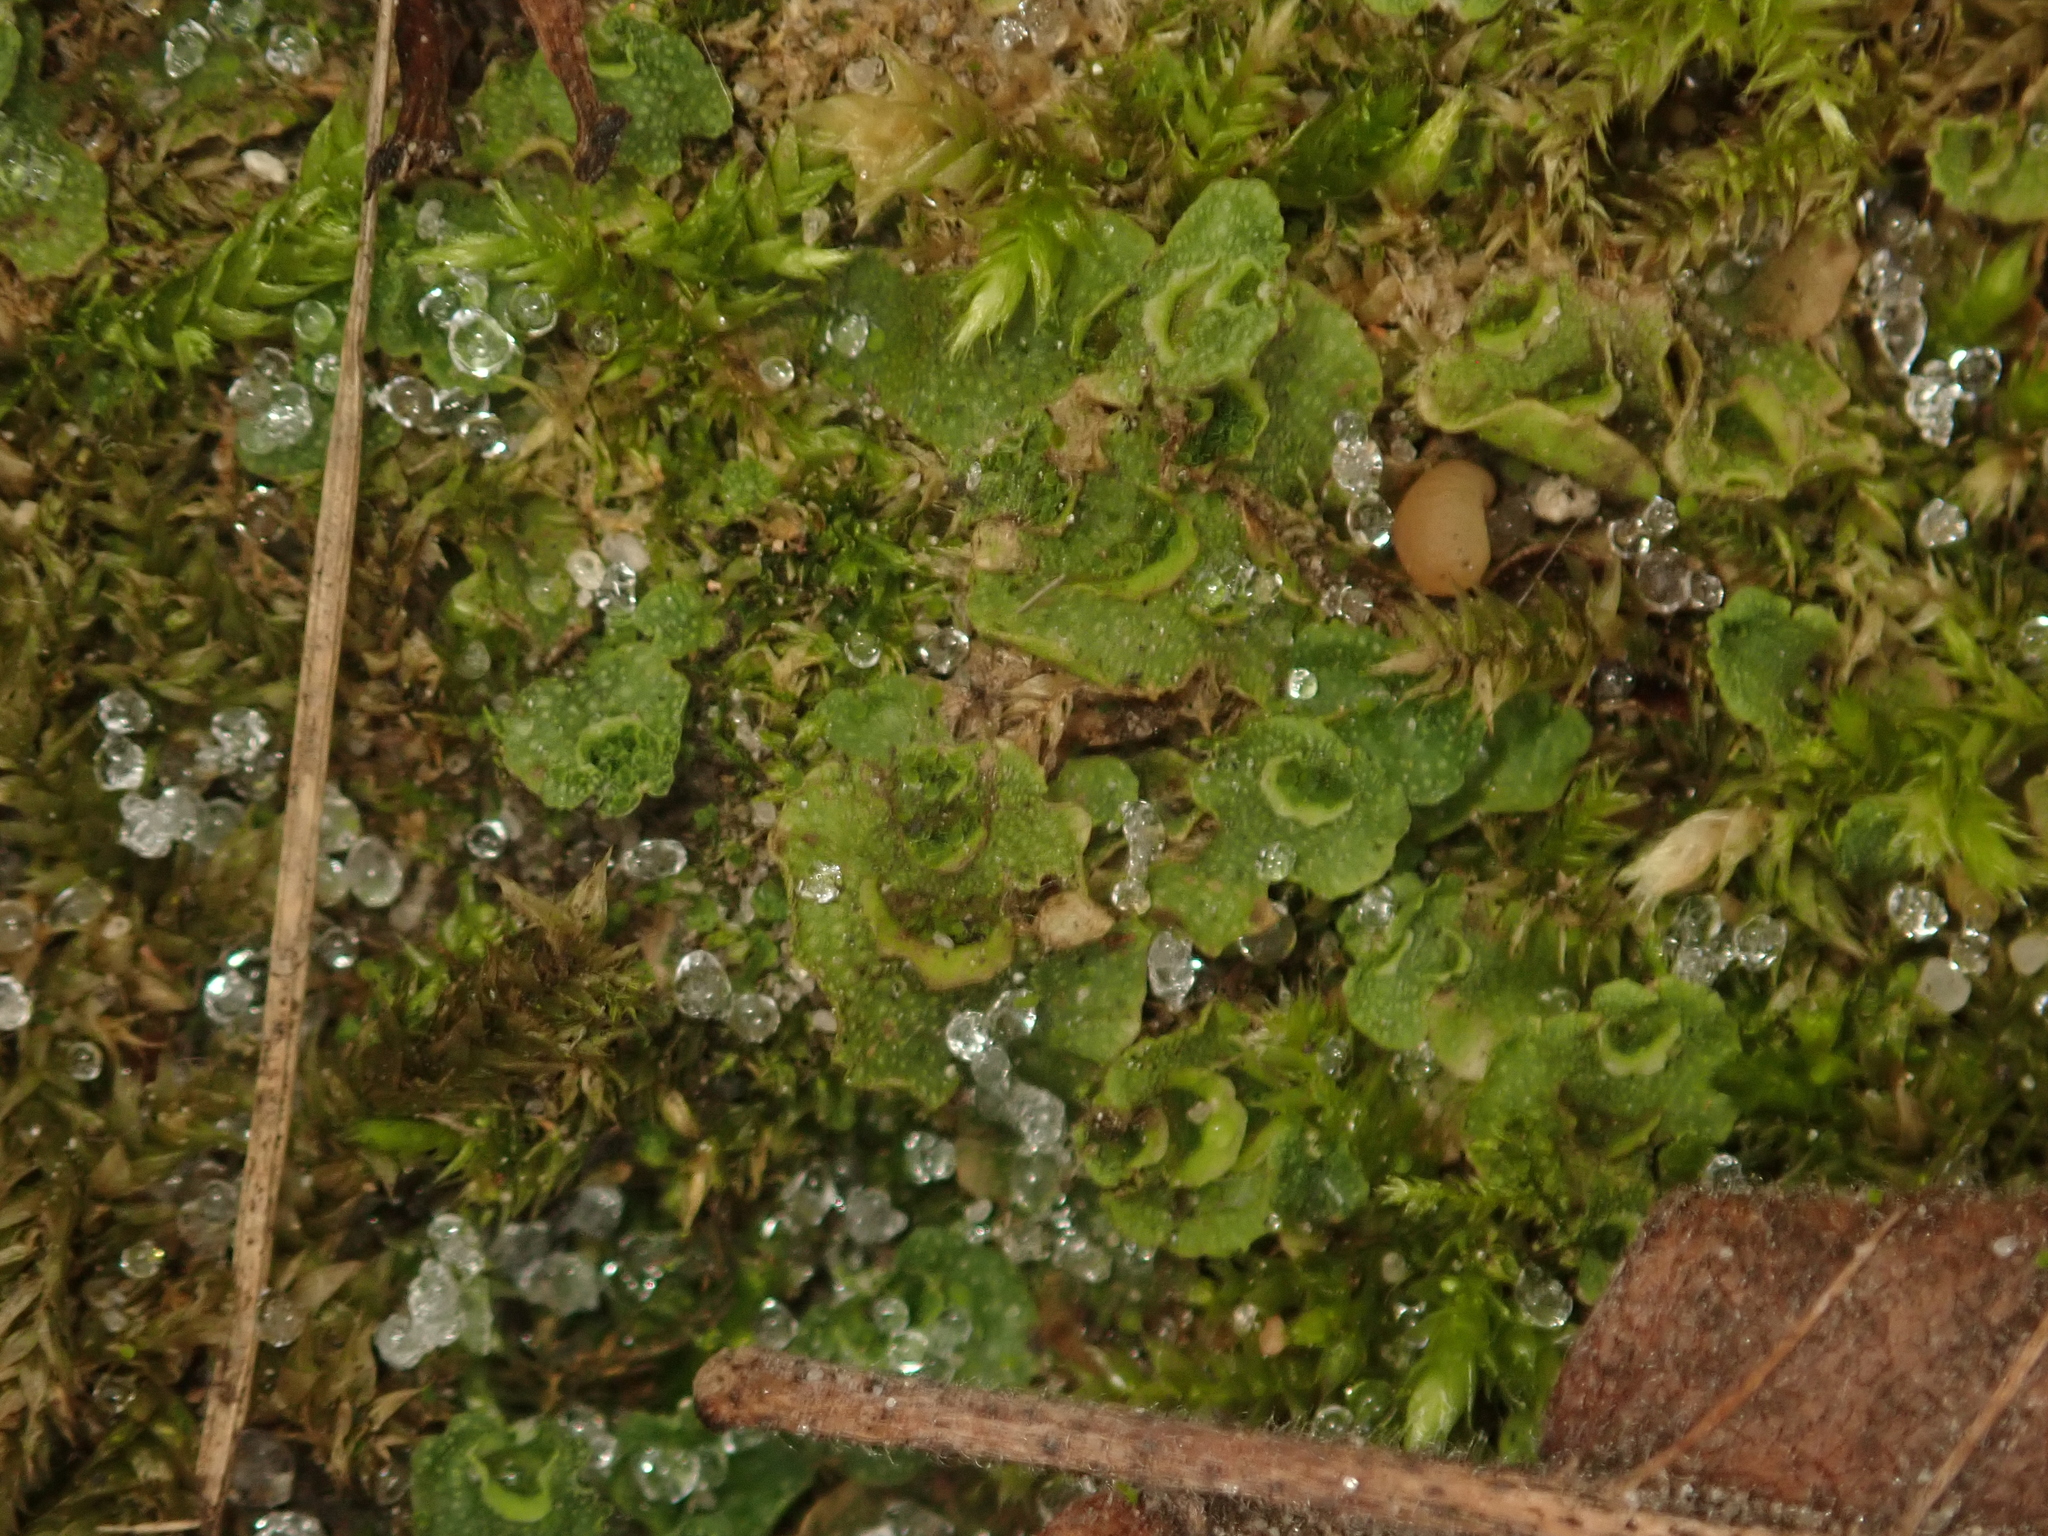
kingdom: Plantae
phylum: Marchantiophyta
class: Marchantiopsida
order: Lunulariales
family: Lunulariaceae
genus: Lunularia
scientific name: Lunularia cruciata
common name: Crescent-cup liverwort
